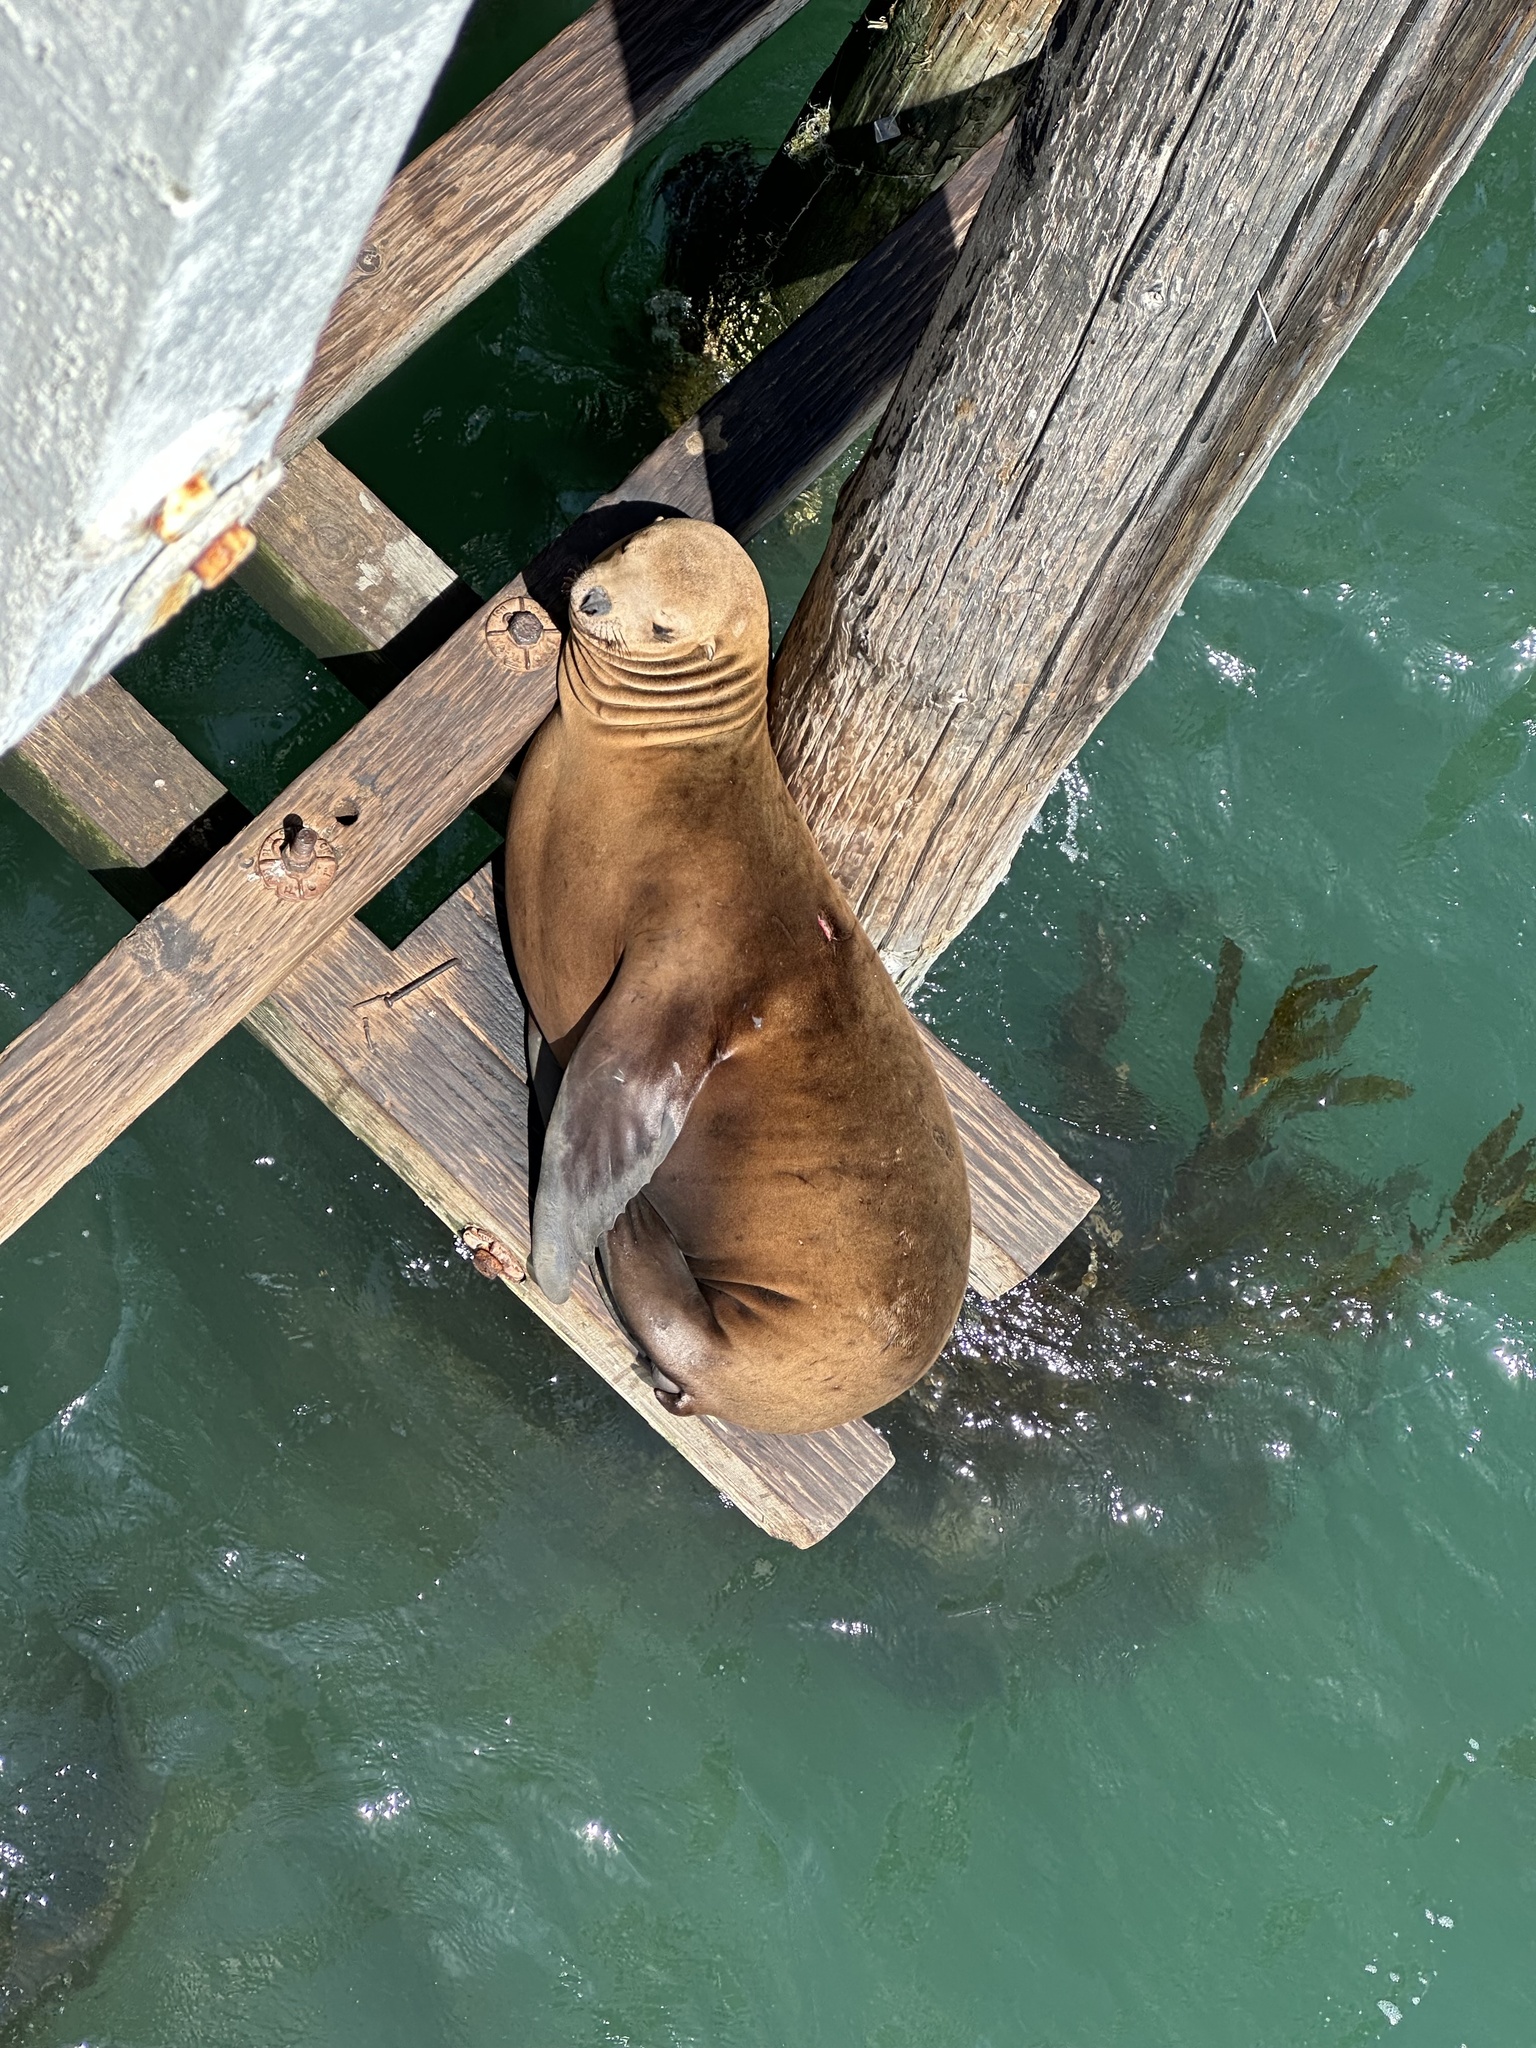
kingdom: Animalia
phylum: Chordata
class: Mammalia
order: Carnivora
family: Otariidae
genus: Zalophus
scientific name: Zalophus californianus
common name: California sea lion
